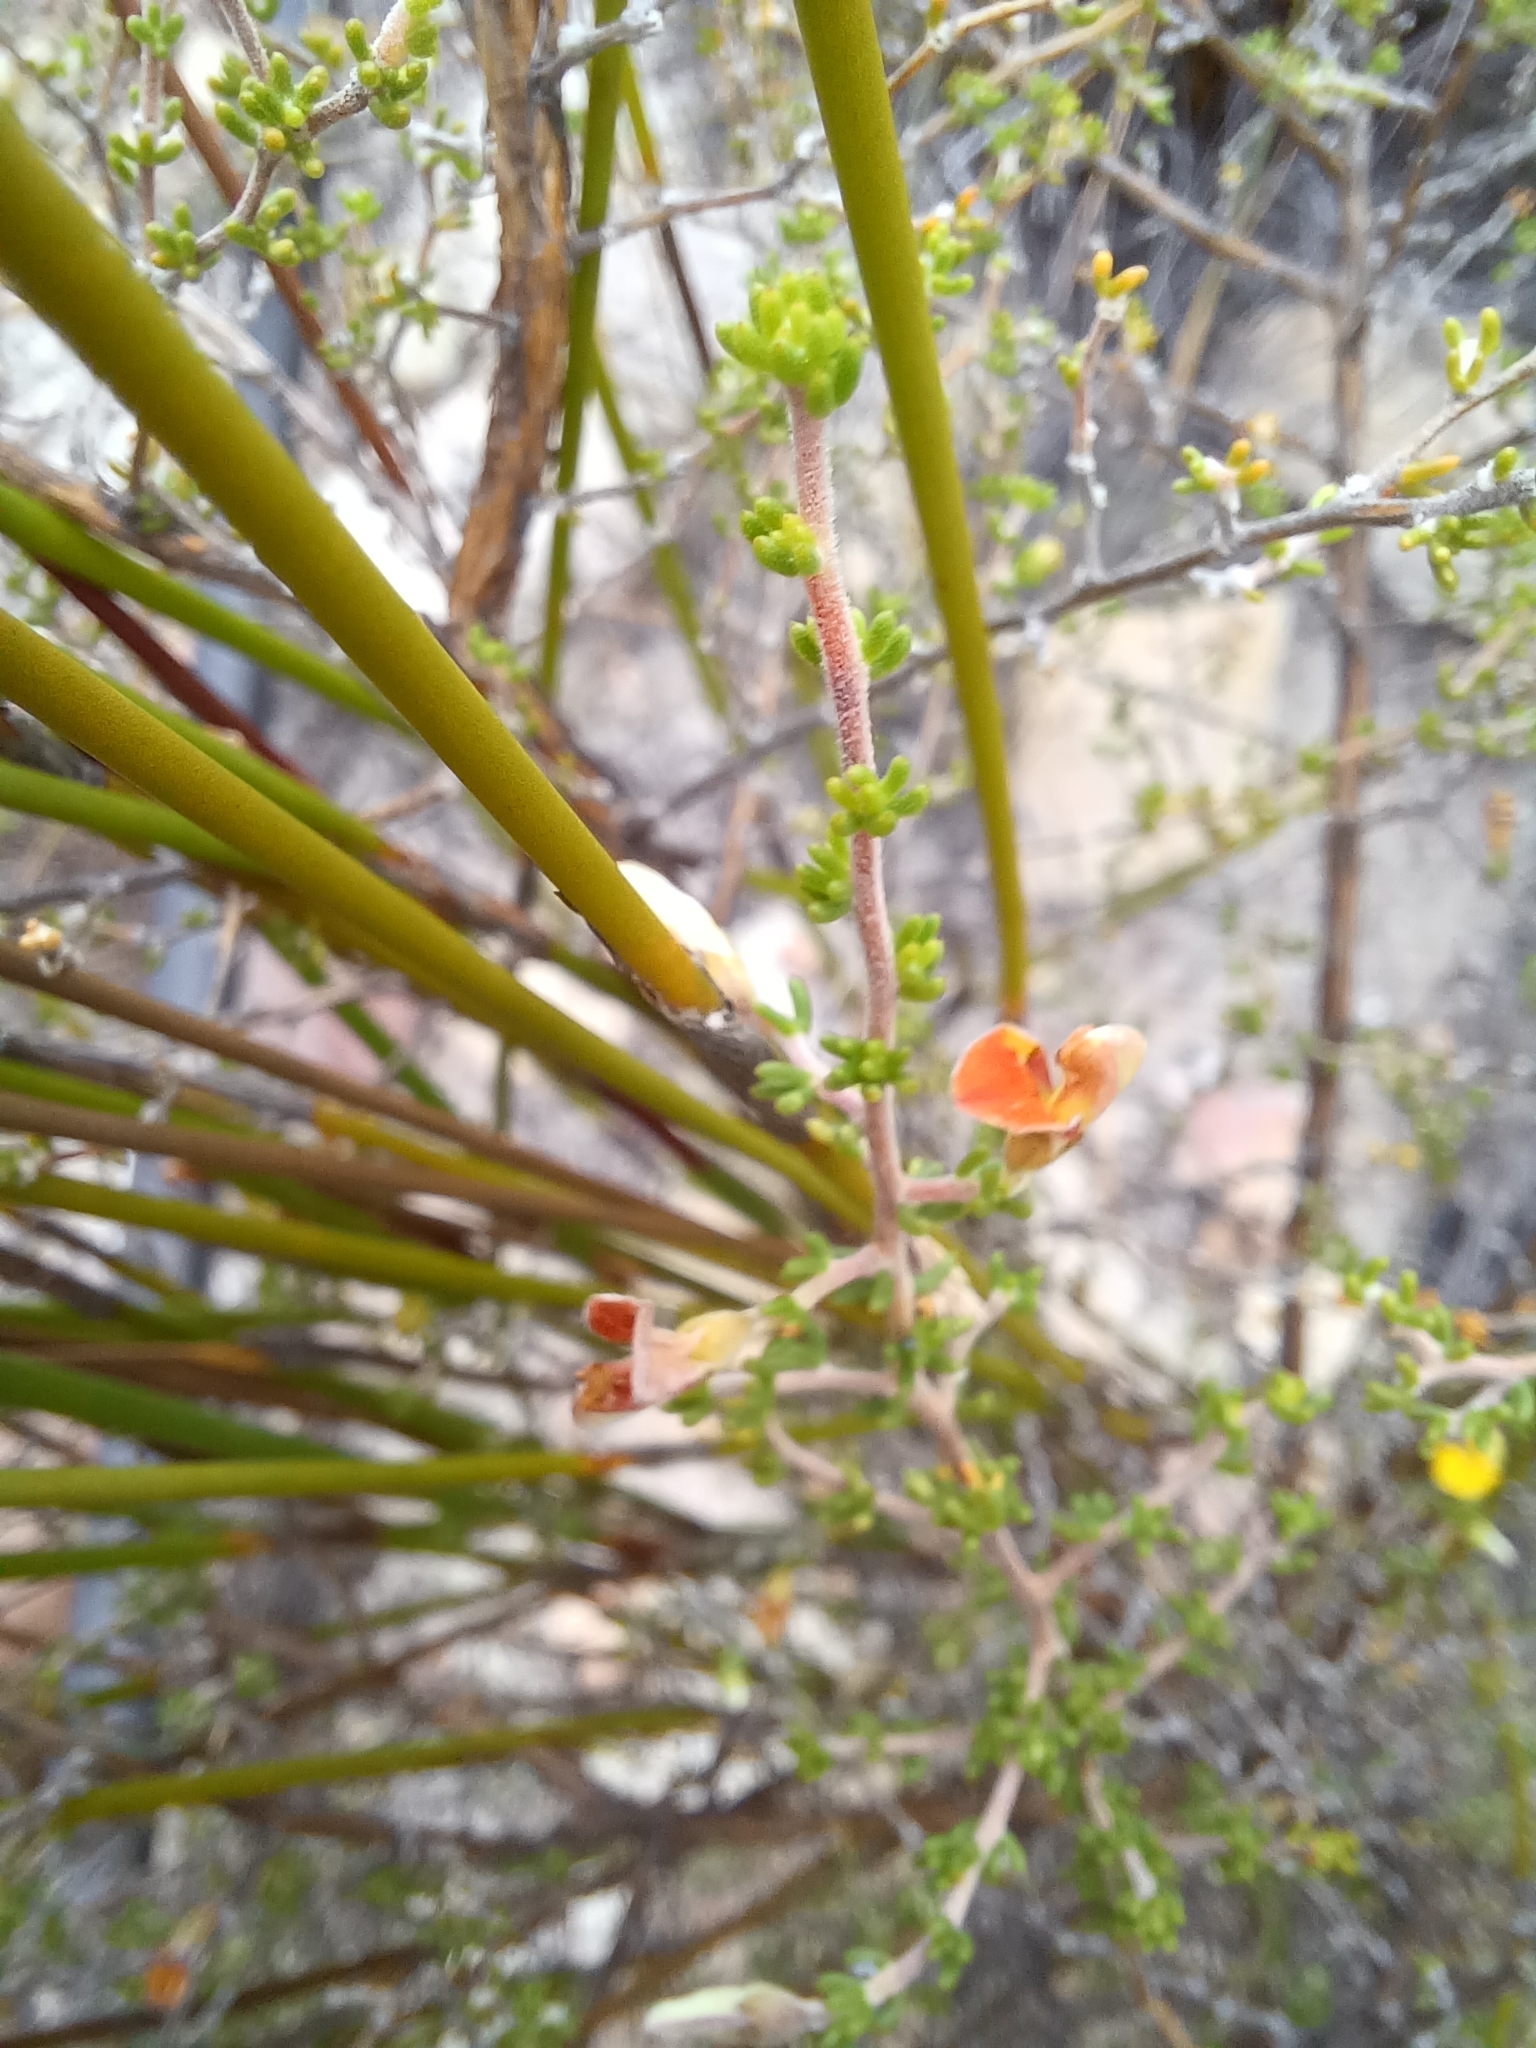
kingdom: Plantae
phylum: Tracheophyta
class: Magnoliopsida
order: Fabales
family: Fabaceae
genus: Aspalathus
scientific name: Aspalathus pilantha
